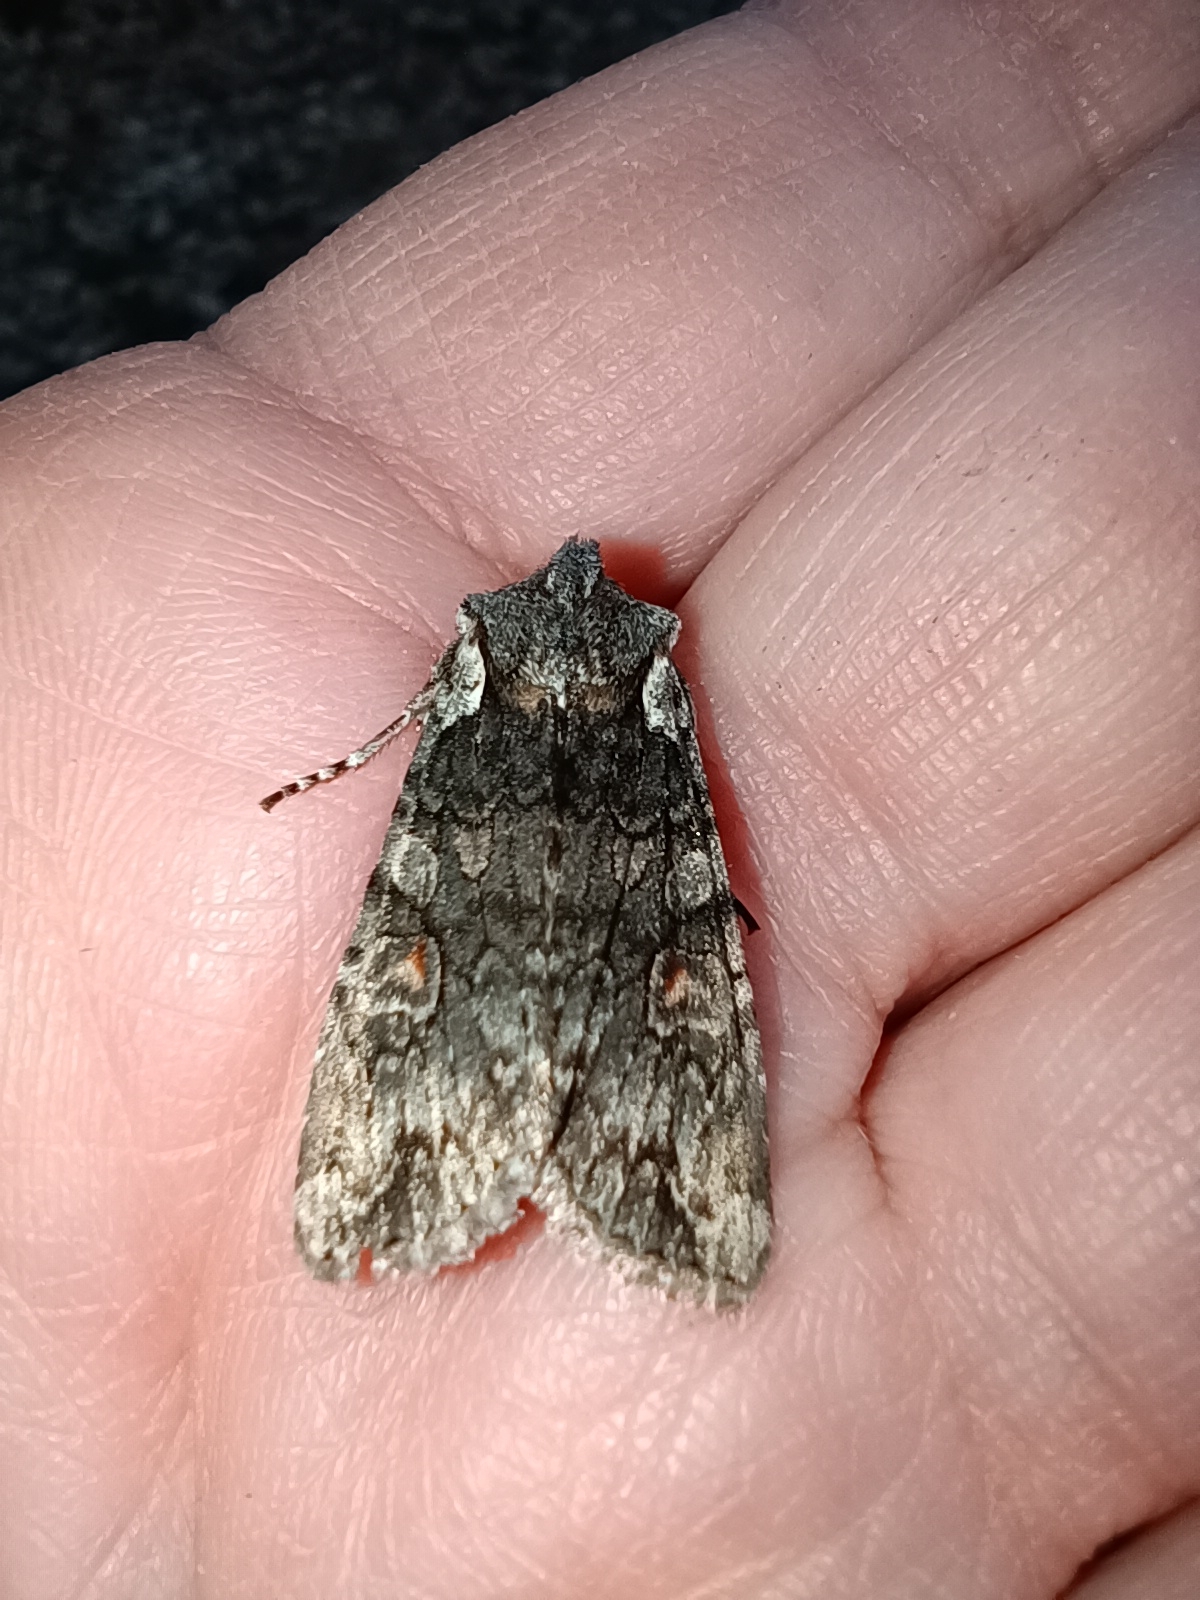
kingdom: Animalia
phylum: Arthropoda
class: Insecta
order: Lepidoptera
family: Noctuidae
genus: Lithophane
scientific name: Lithophane consocia
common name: Softly's shoulder-knot
